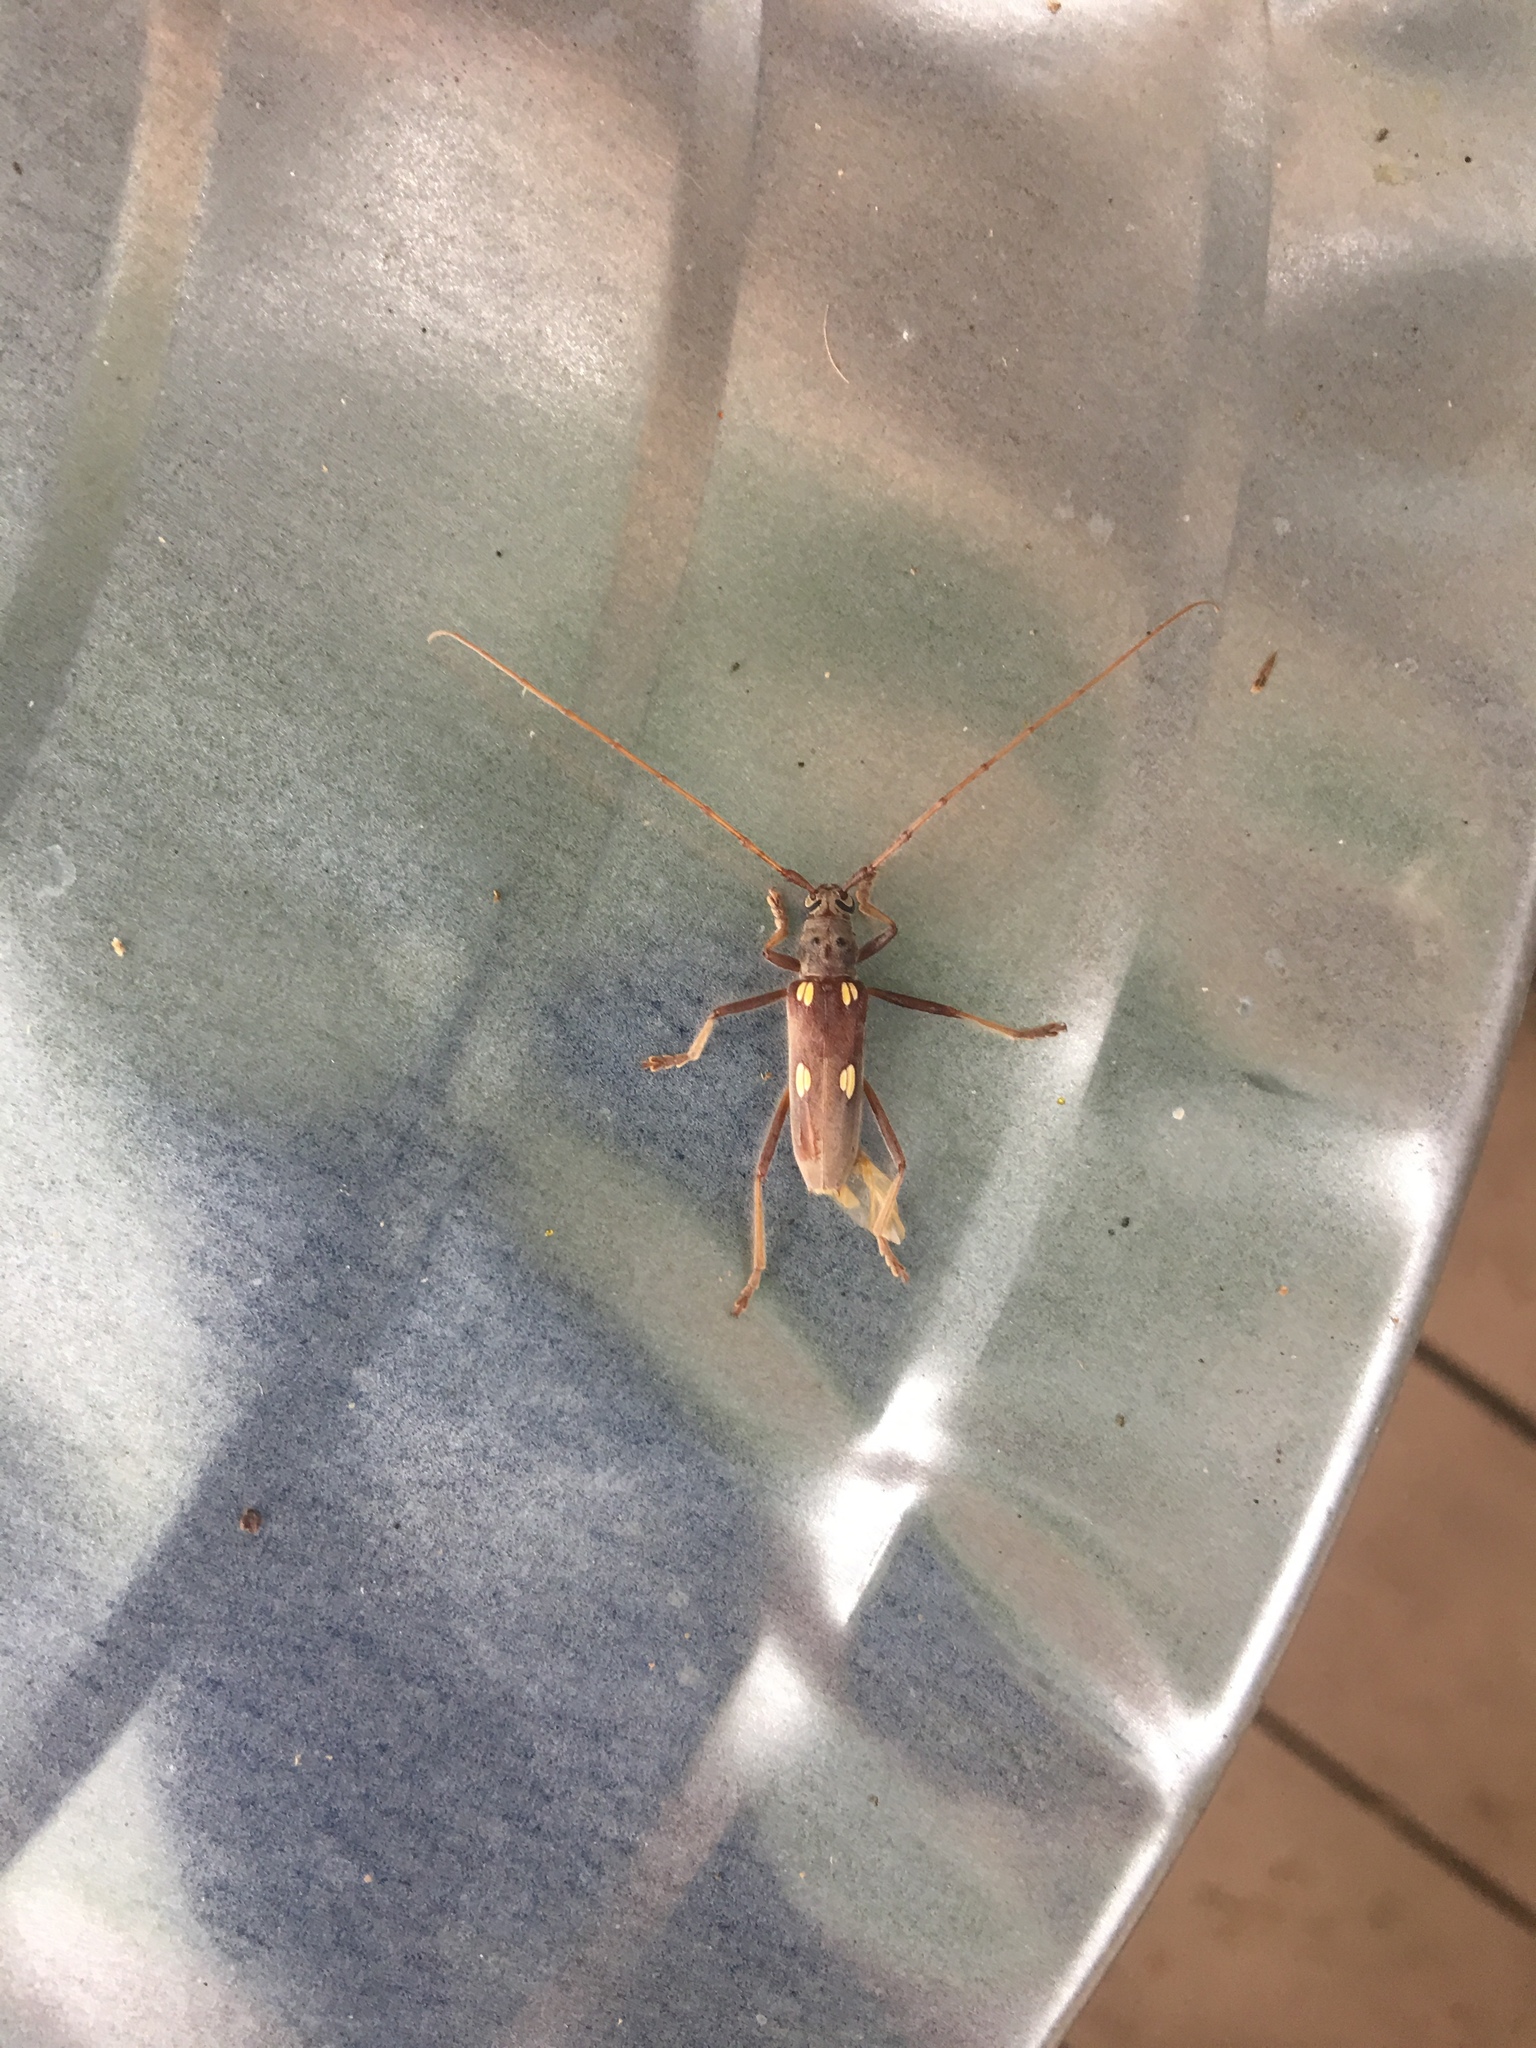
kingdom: Animalia
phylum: Arthropoda
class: Insecta
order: Coleoptera
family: Cerambycidae
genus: Eburia
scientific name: Eburia distincta
